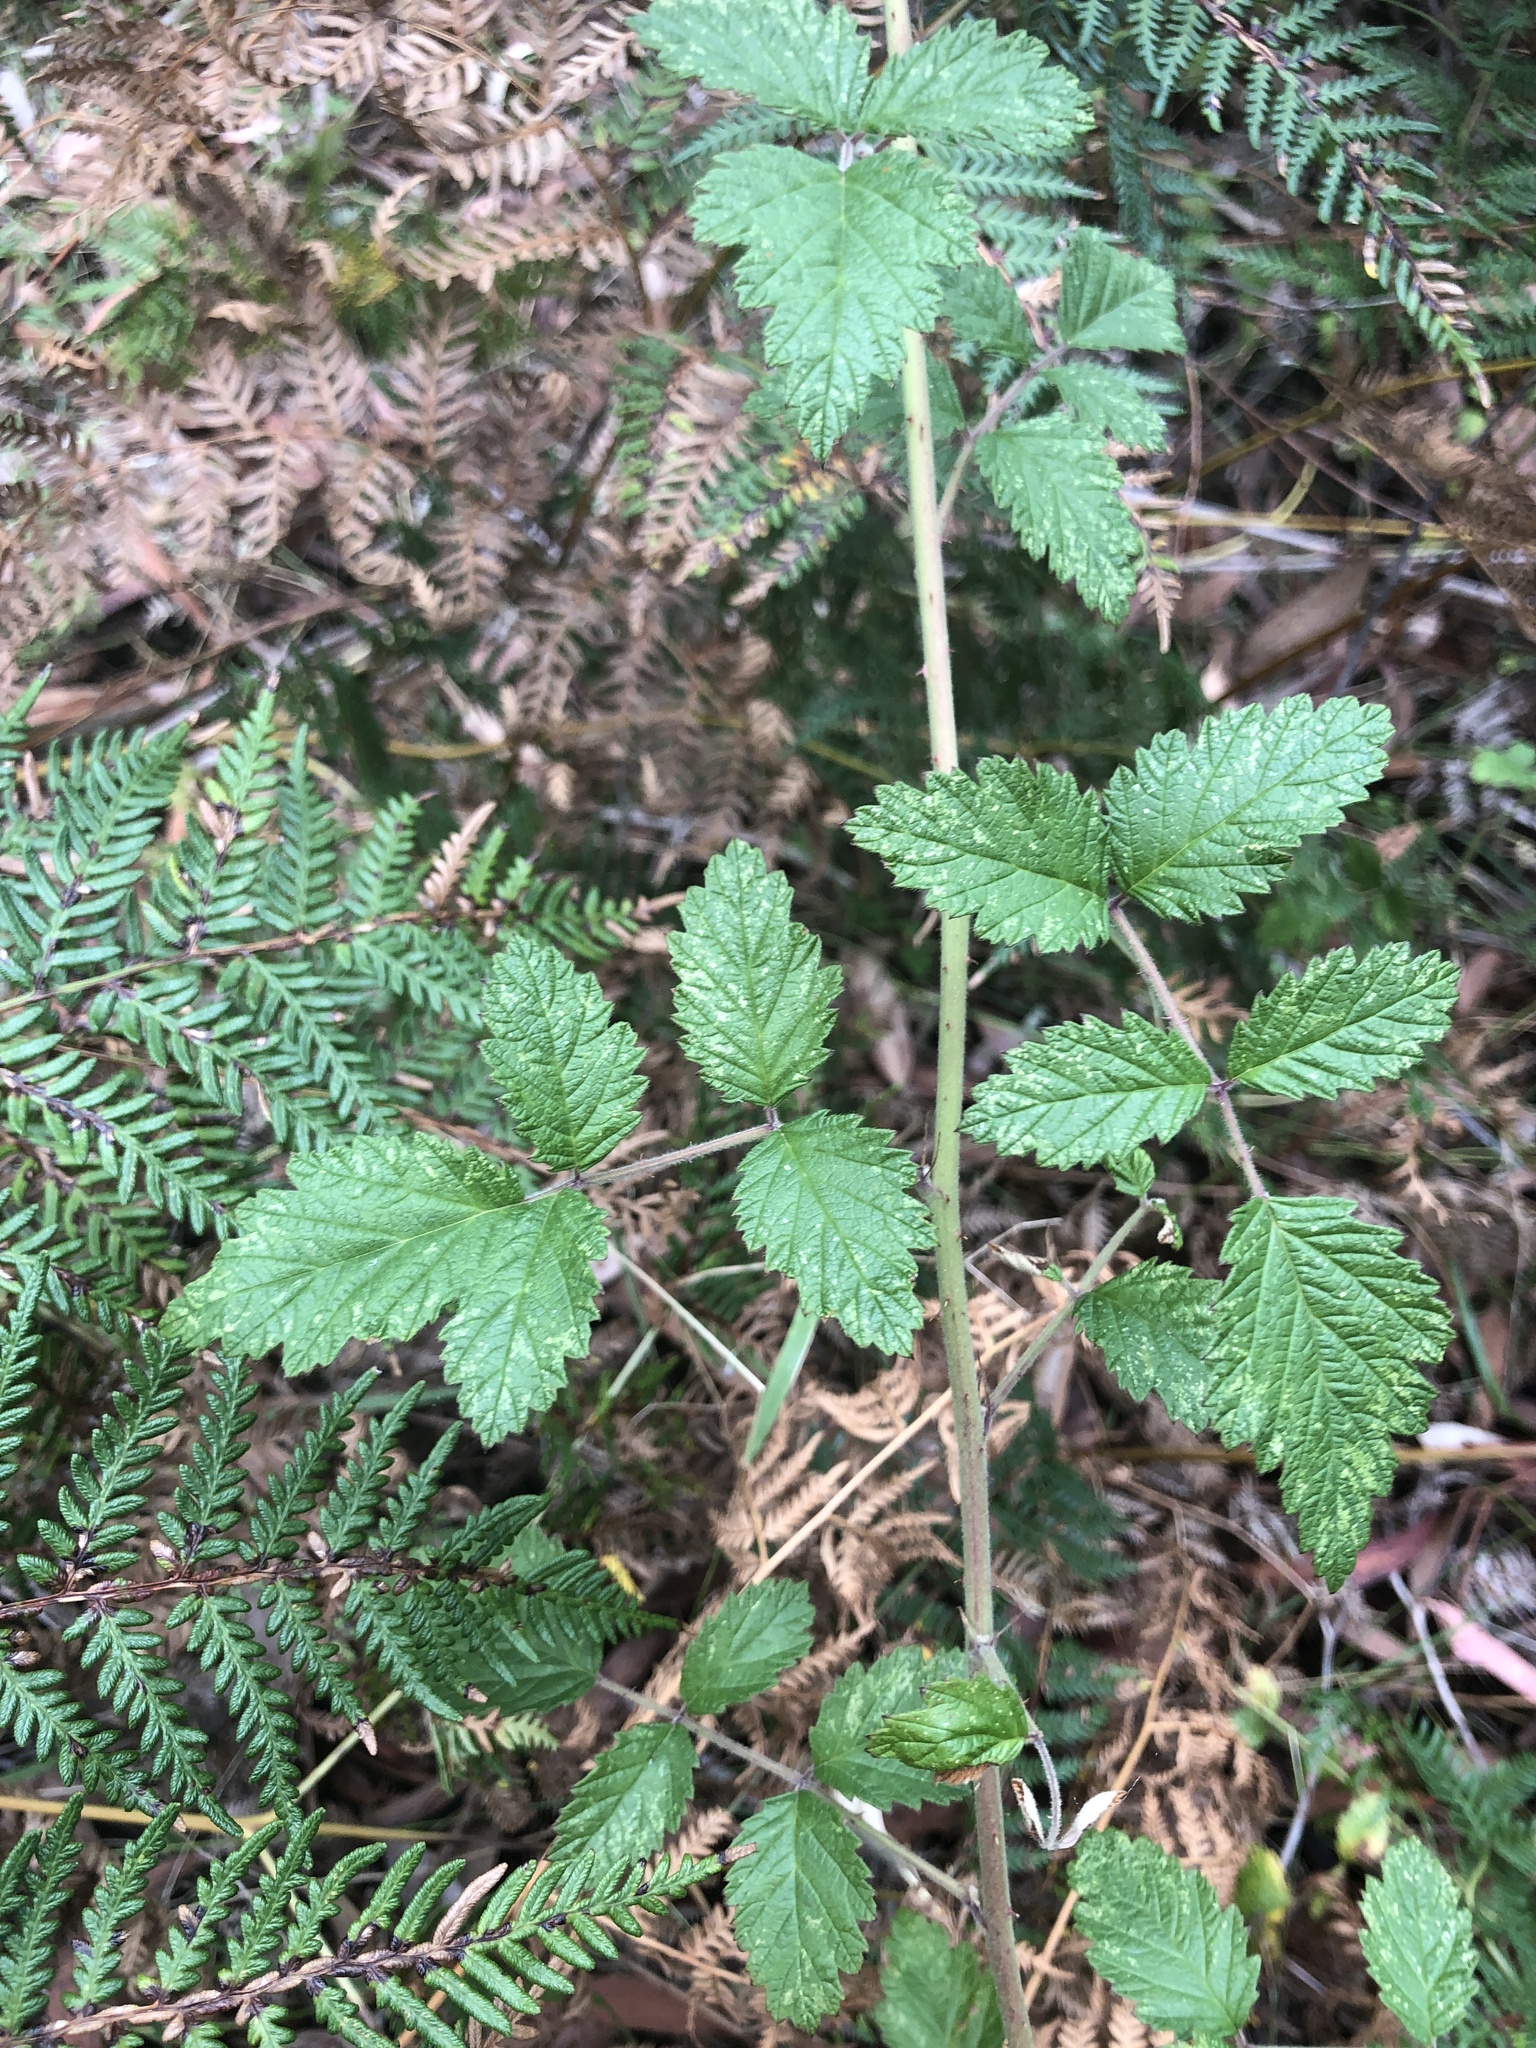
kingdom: Plantae
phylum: Tracheophyta
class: Magnoliopsida
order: Rosales
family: Rosaceae
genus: Rubus
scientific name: Rubus parvifolius
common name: Threeleaf blackberry
